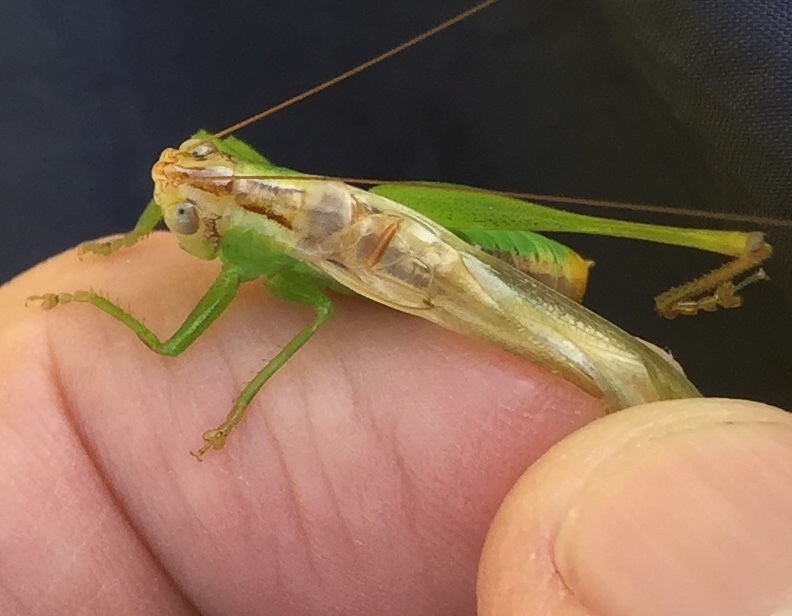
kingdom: Animalia
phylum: Arthropoda
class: Insecta
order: Orthoptera
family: Tettigoniidae
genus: Orchelimum
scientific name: Orchelimum agilis
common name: Agile meadow grasshopper
